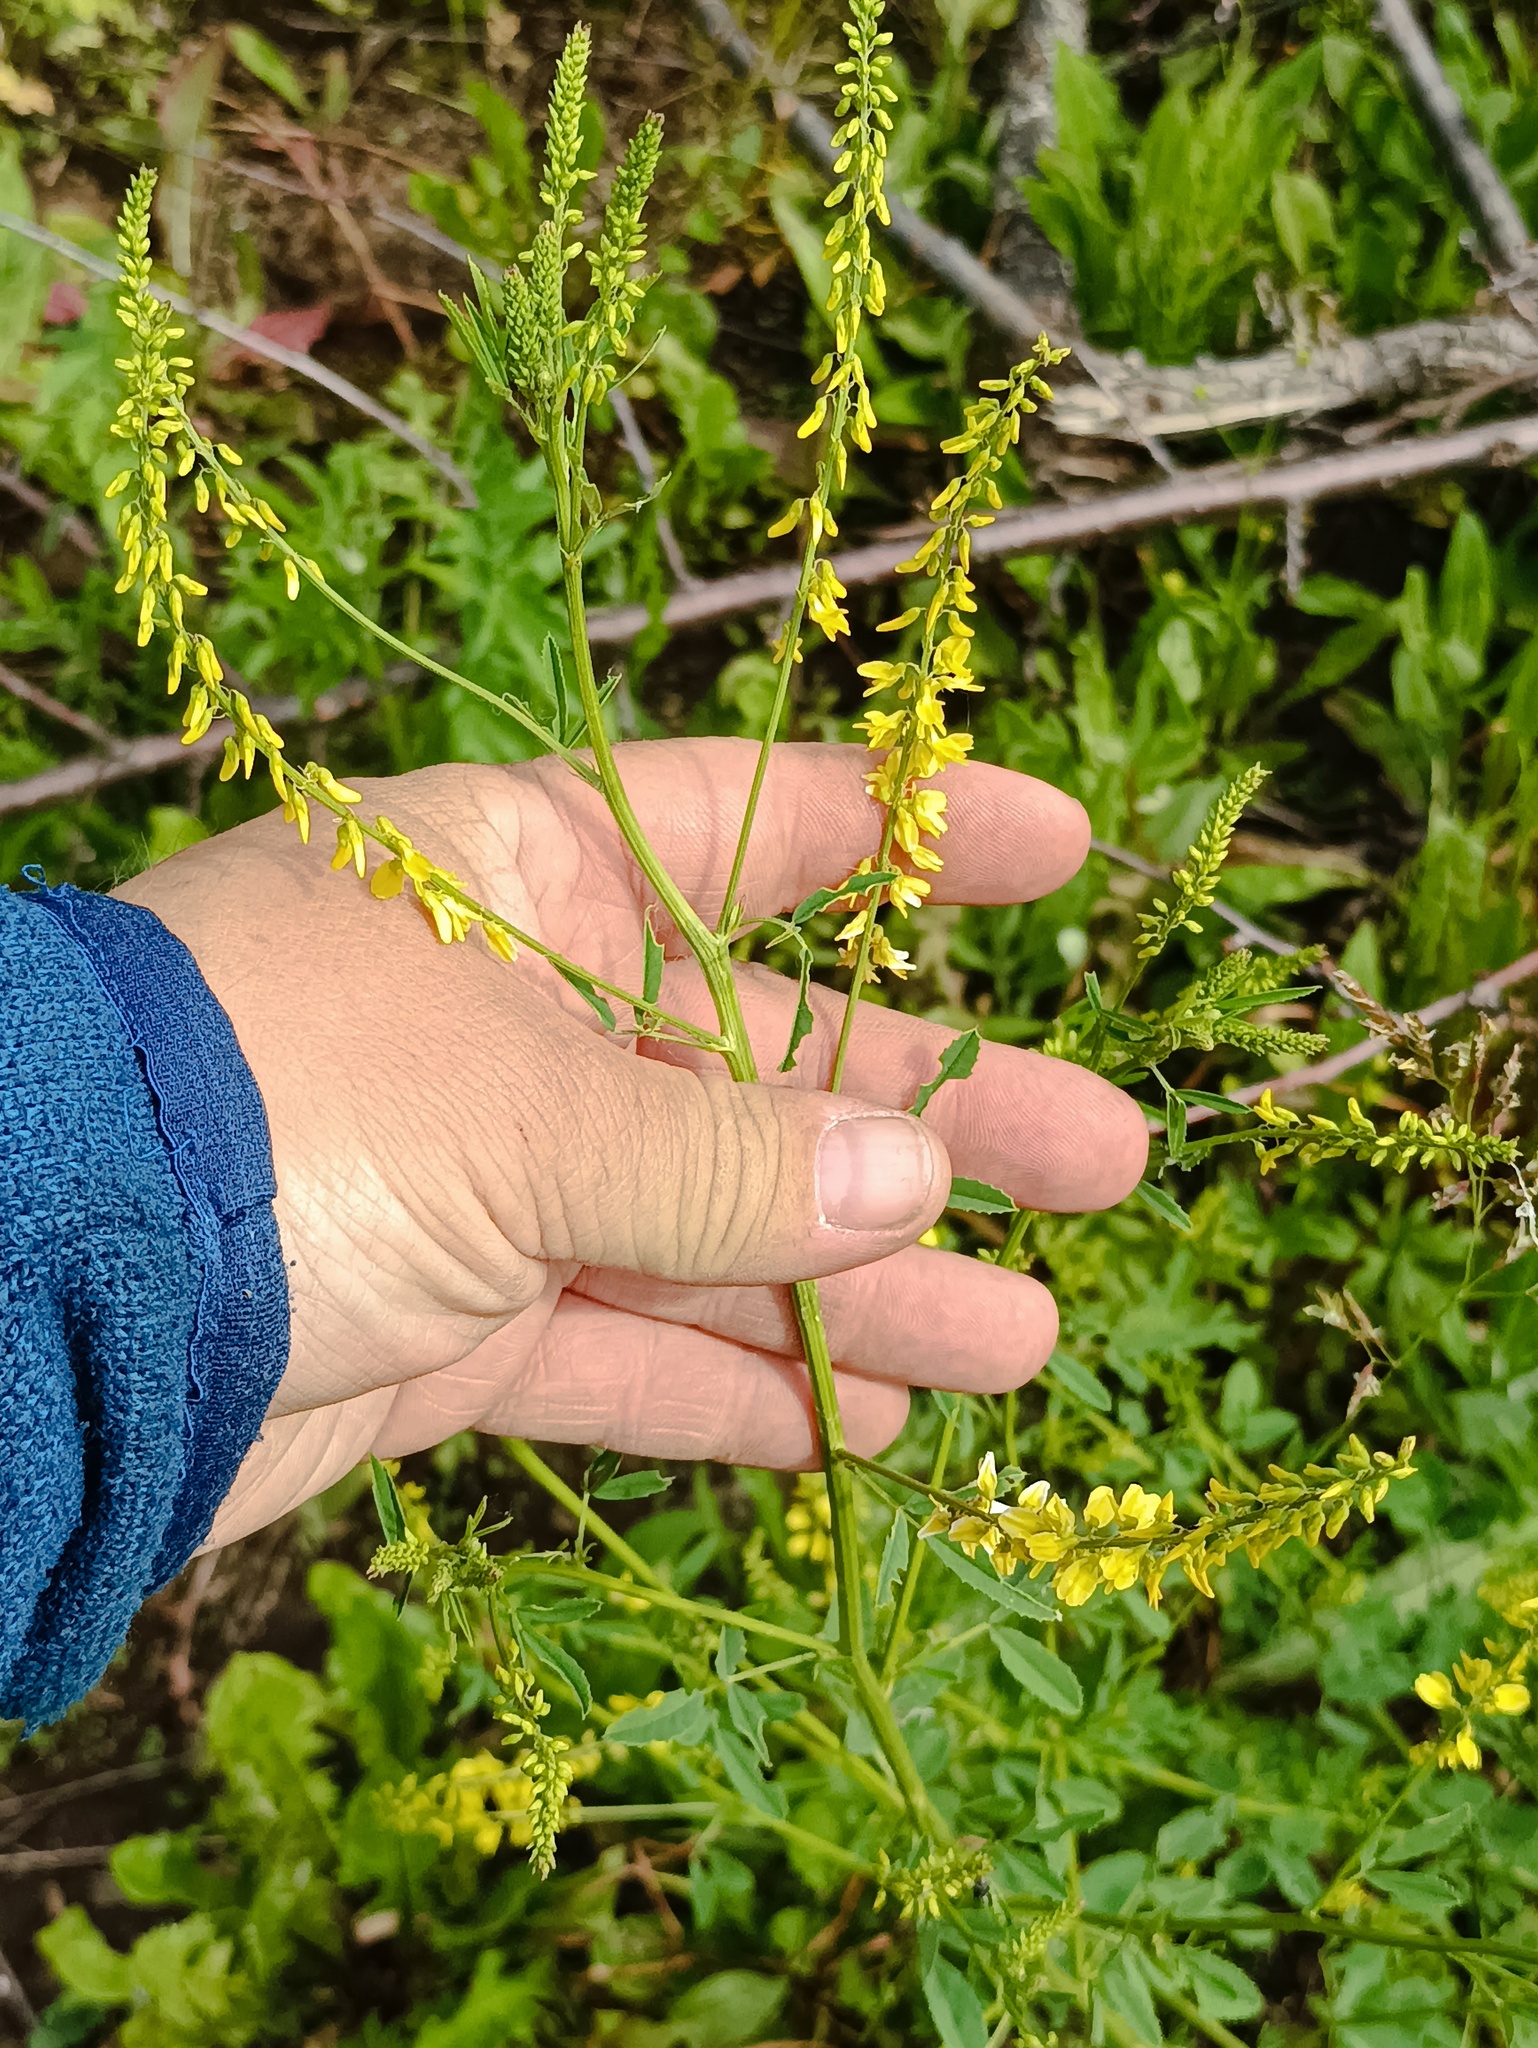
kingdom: Plantae
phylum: Tracheophyta
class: Magnoliopsida
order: Fabales
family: Fabaceae
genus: Melilotus
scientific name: Melilotus officinalis
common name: Sweetclover
